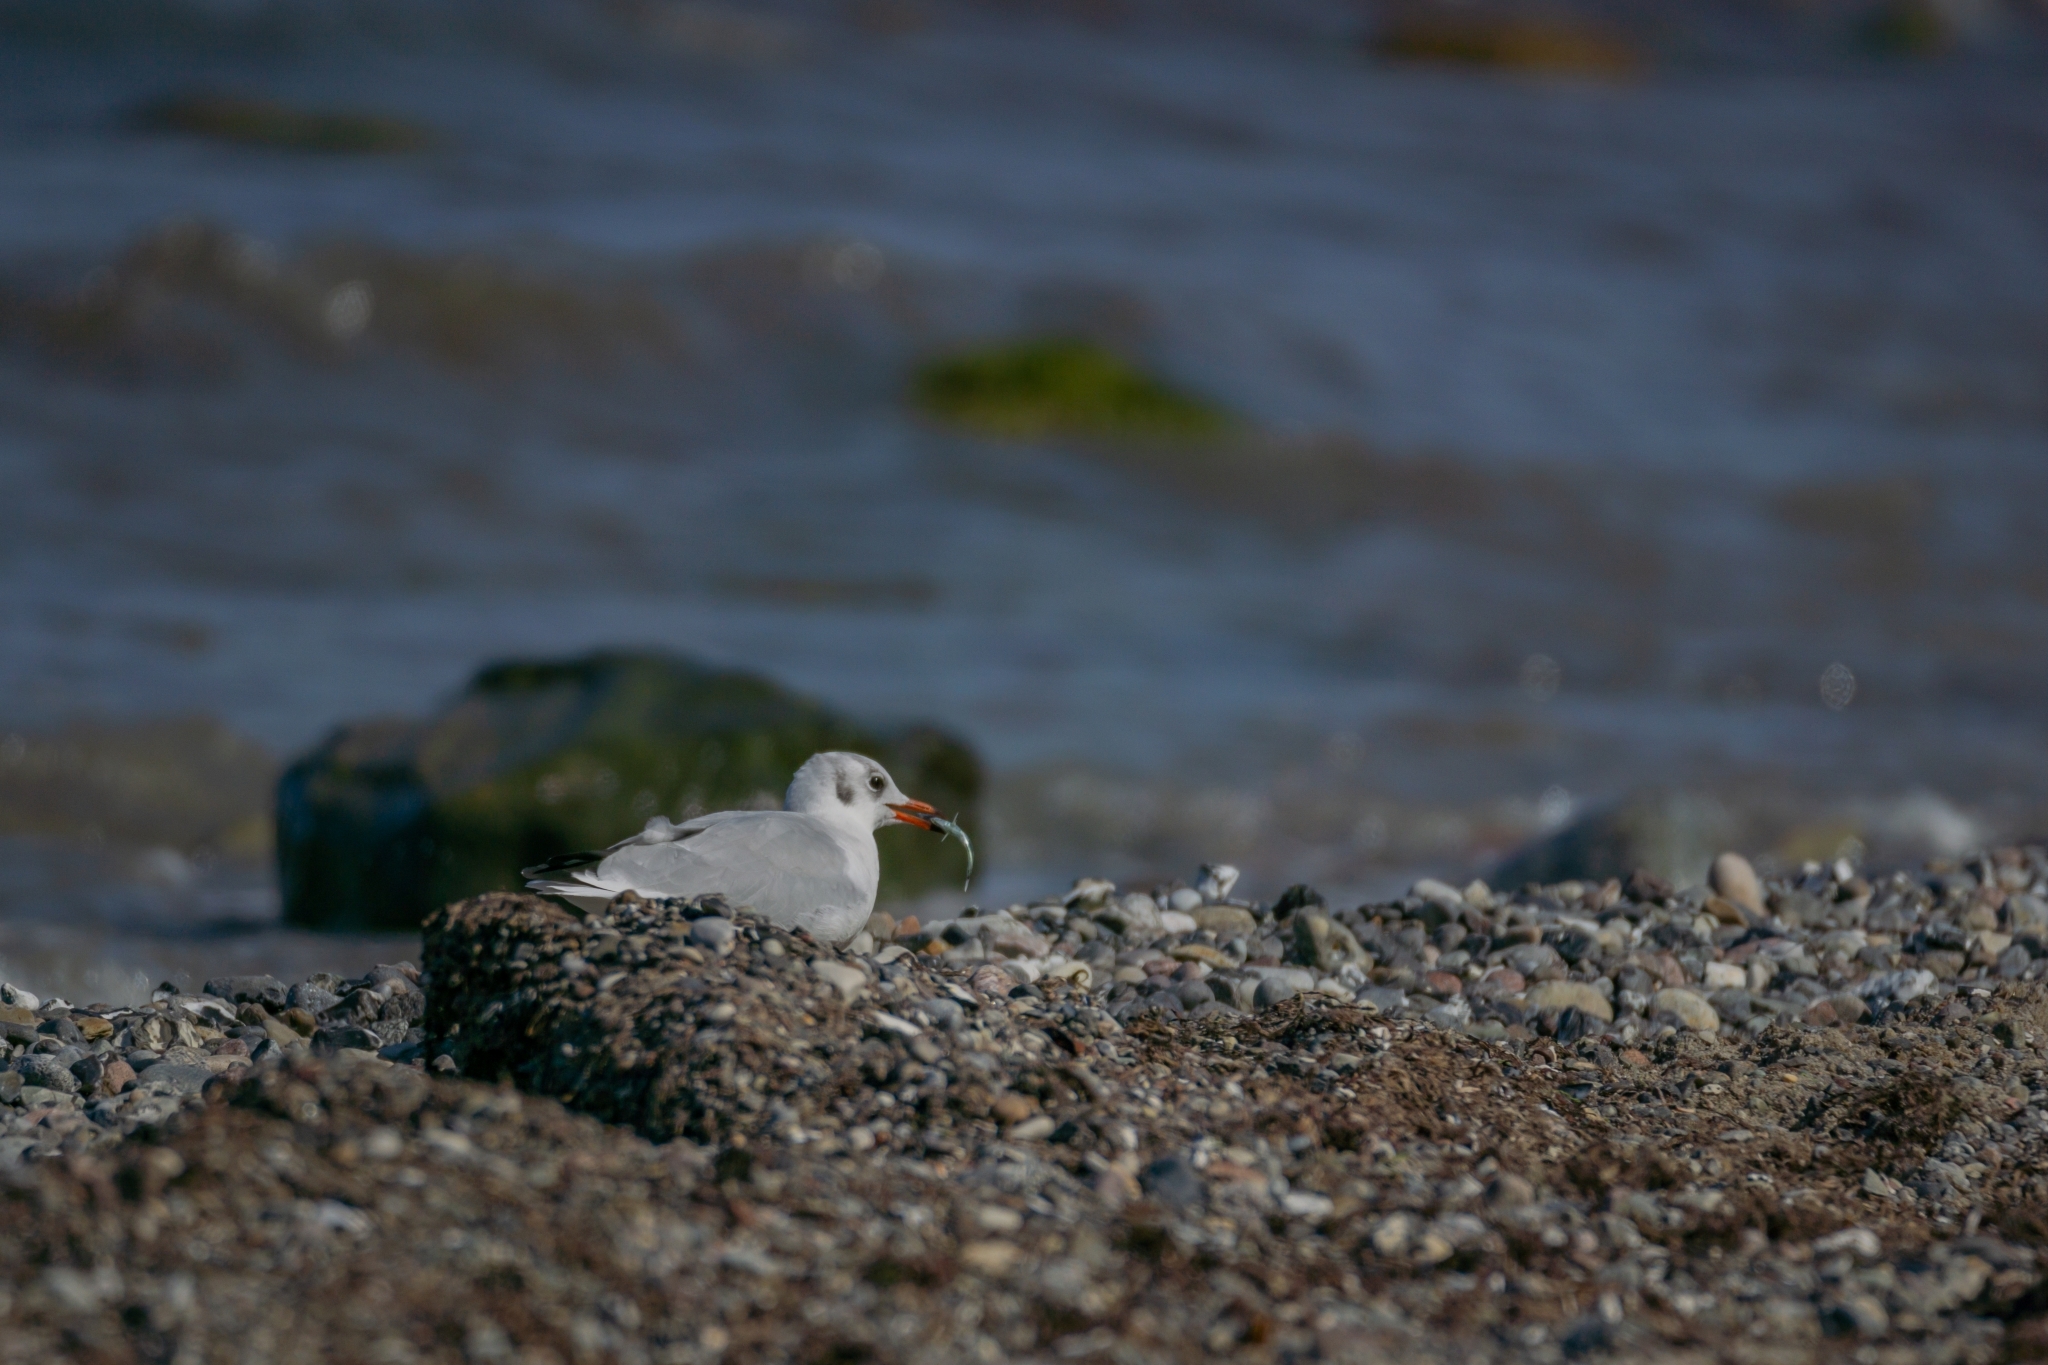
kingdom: Animalia
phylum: Chordata
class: Aves
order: Charadriiformes
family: Laridae
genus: Chroicocephalus
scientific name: Chroicocephalus ridibundus
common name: Black-headed gull
